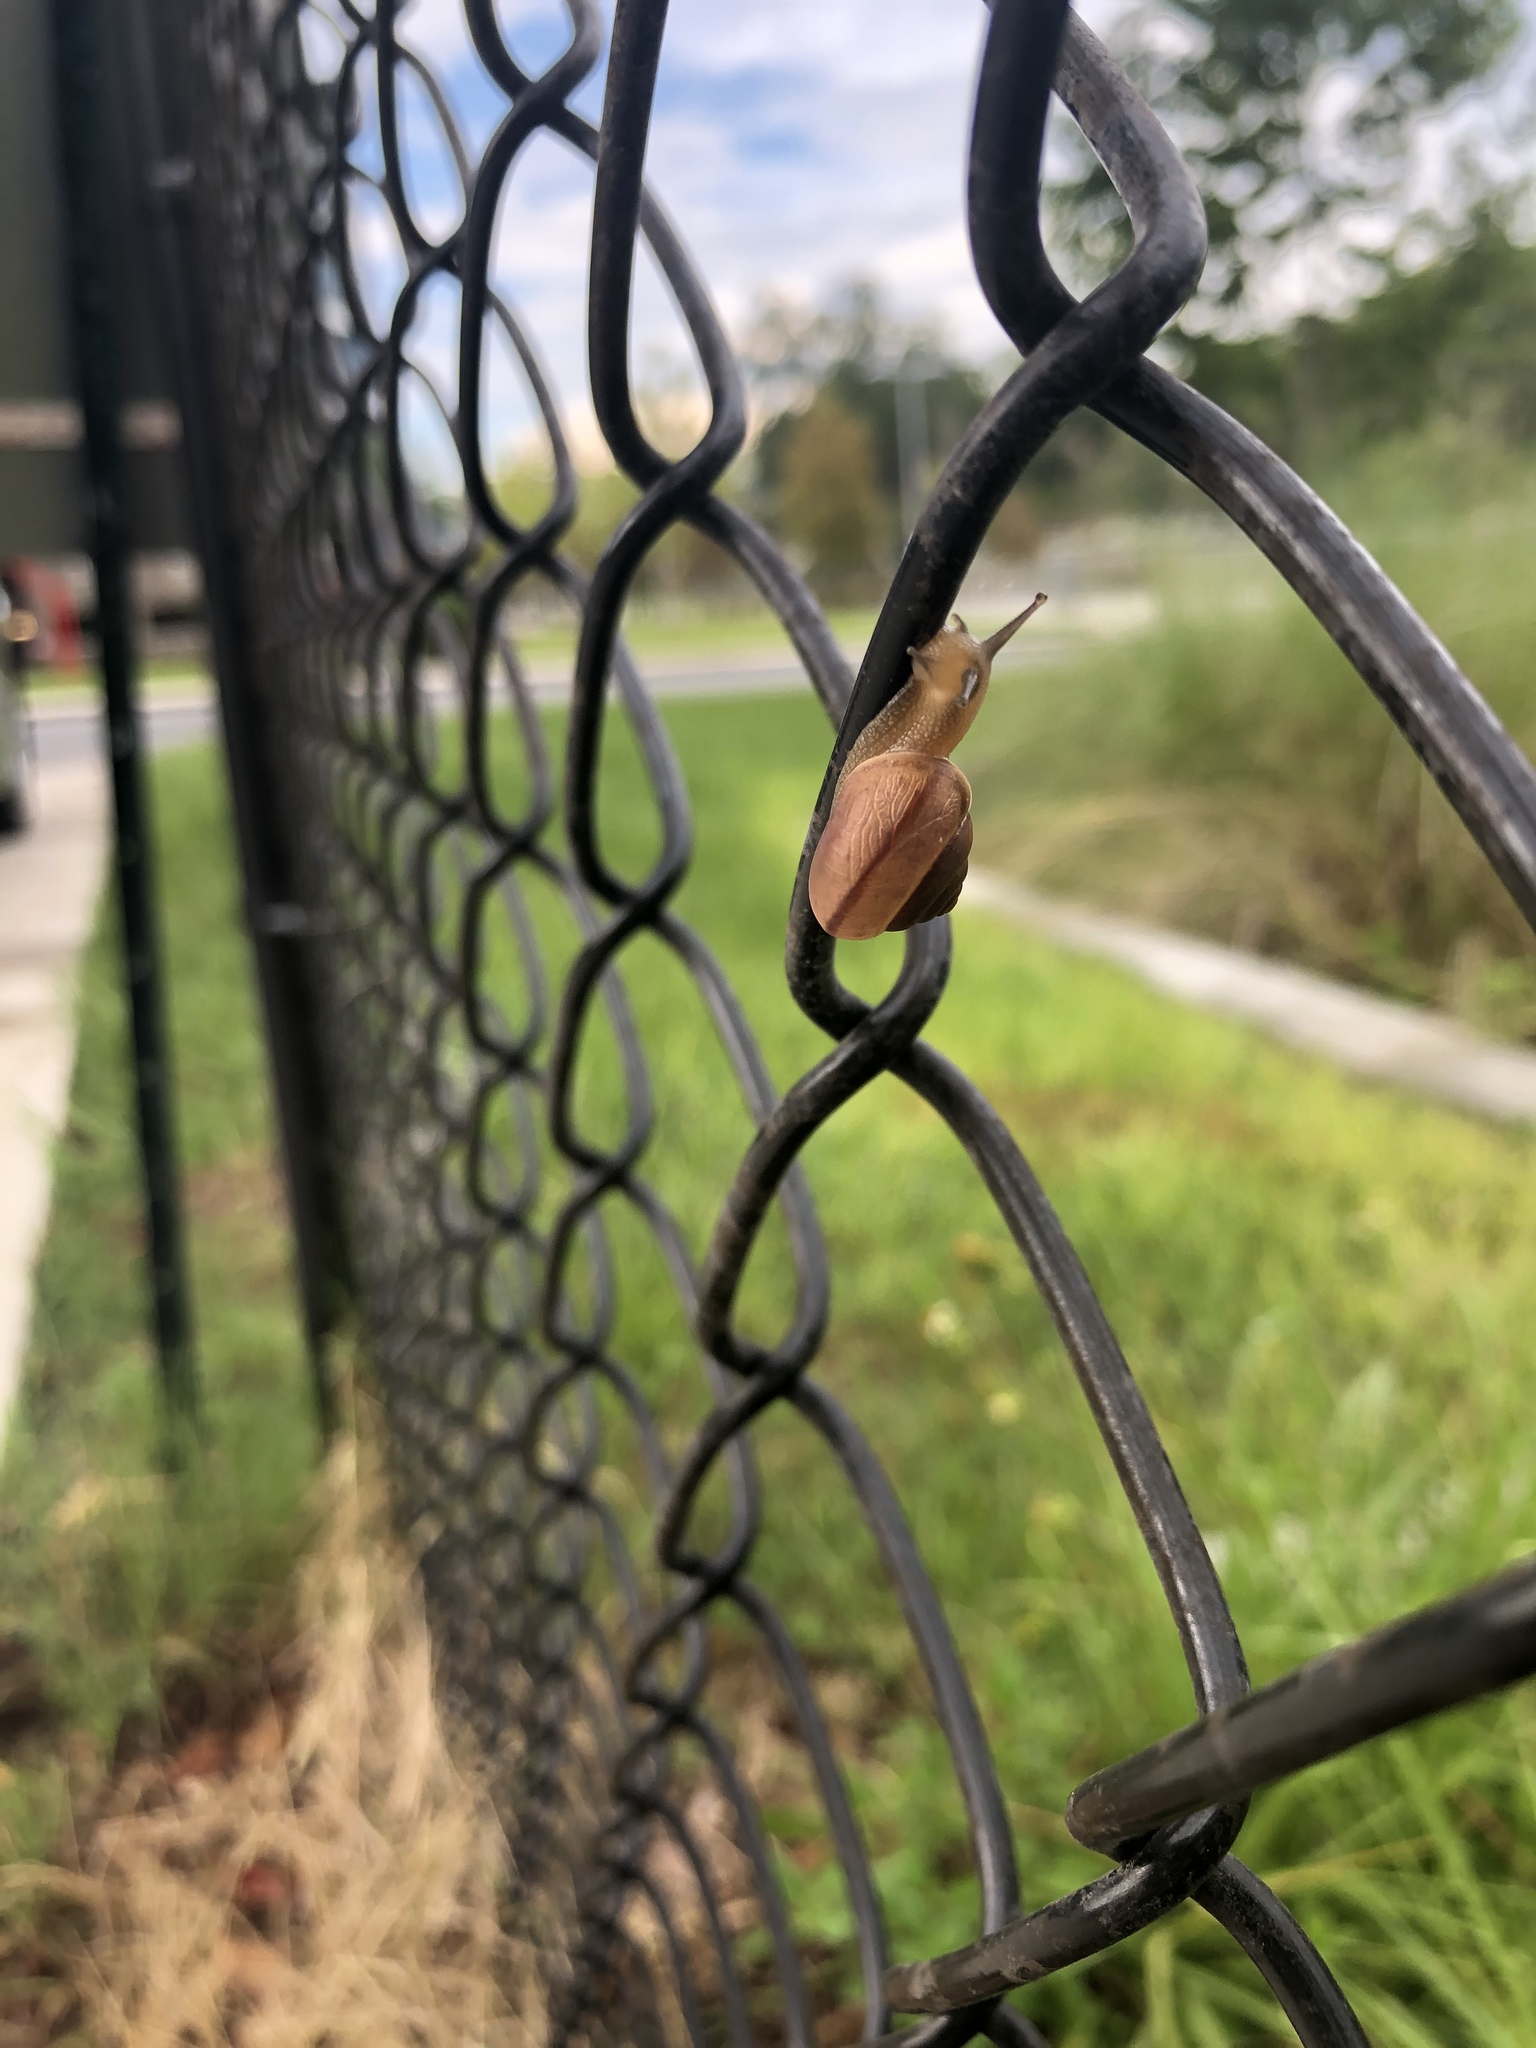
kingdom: Animalia
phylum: Mollusca
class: Gastropoda
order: Stylommatophora
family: Camaenidae
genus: Bradybaena
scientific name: Bradybaena similaris
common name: Asian trampsnail
